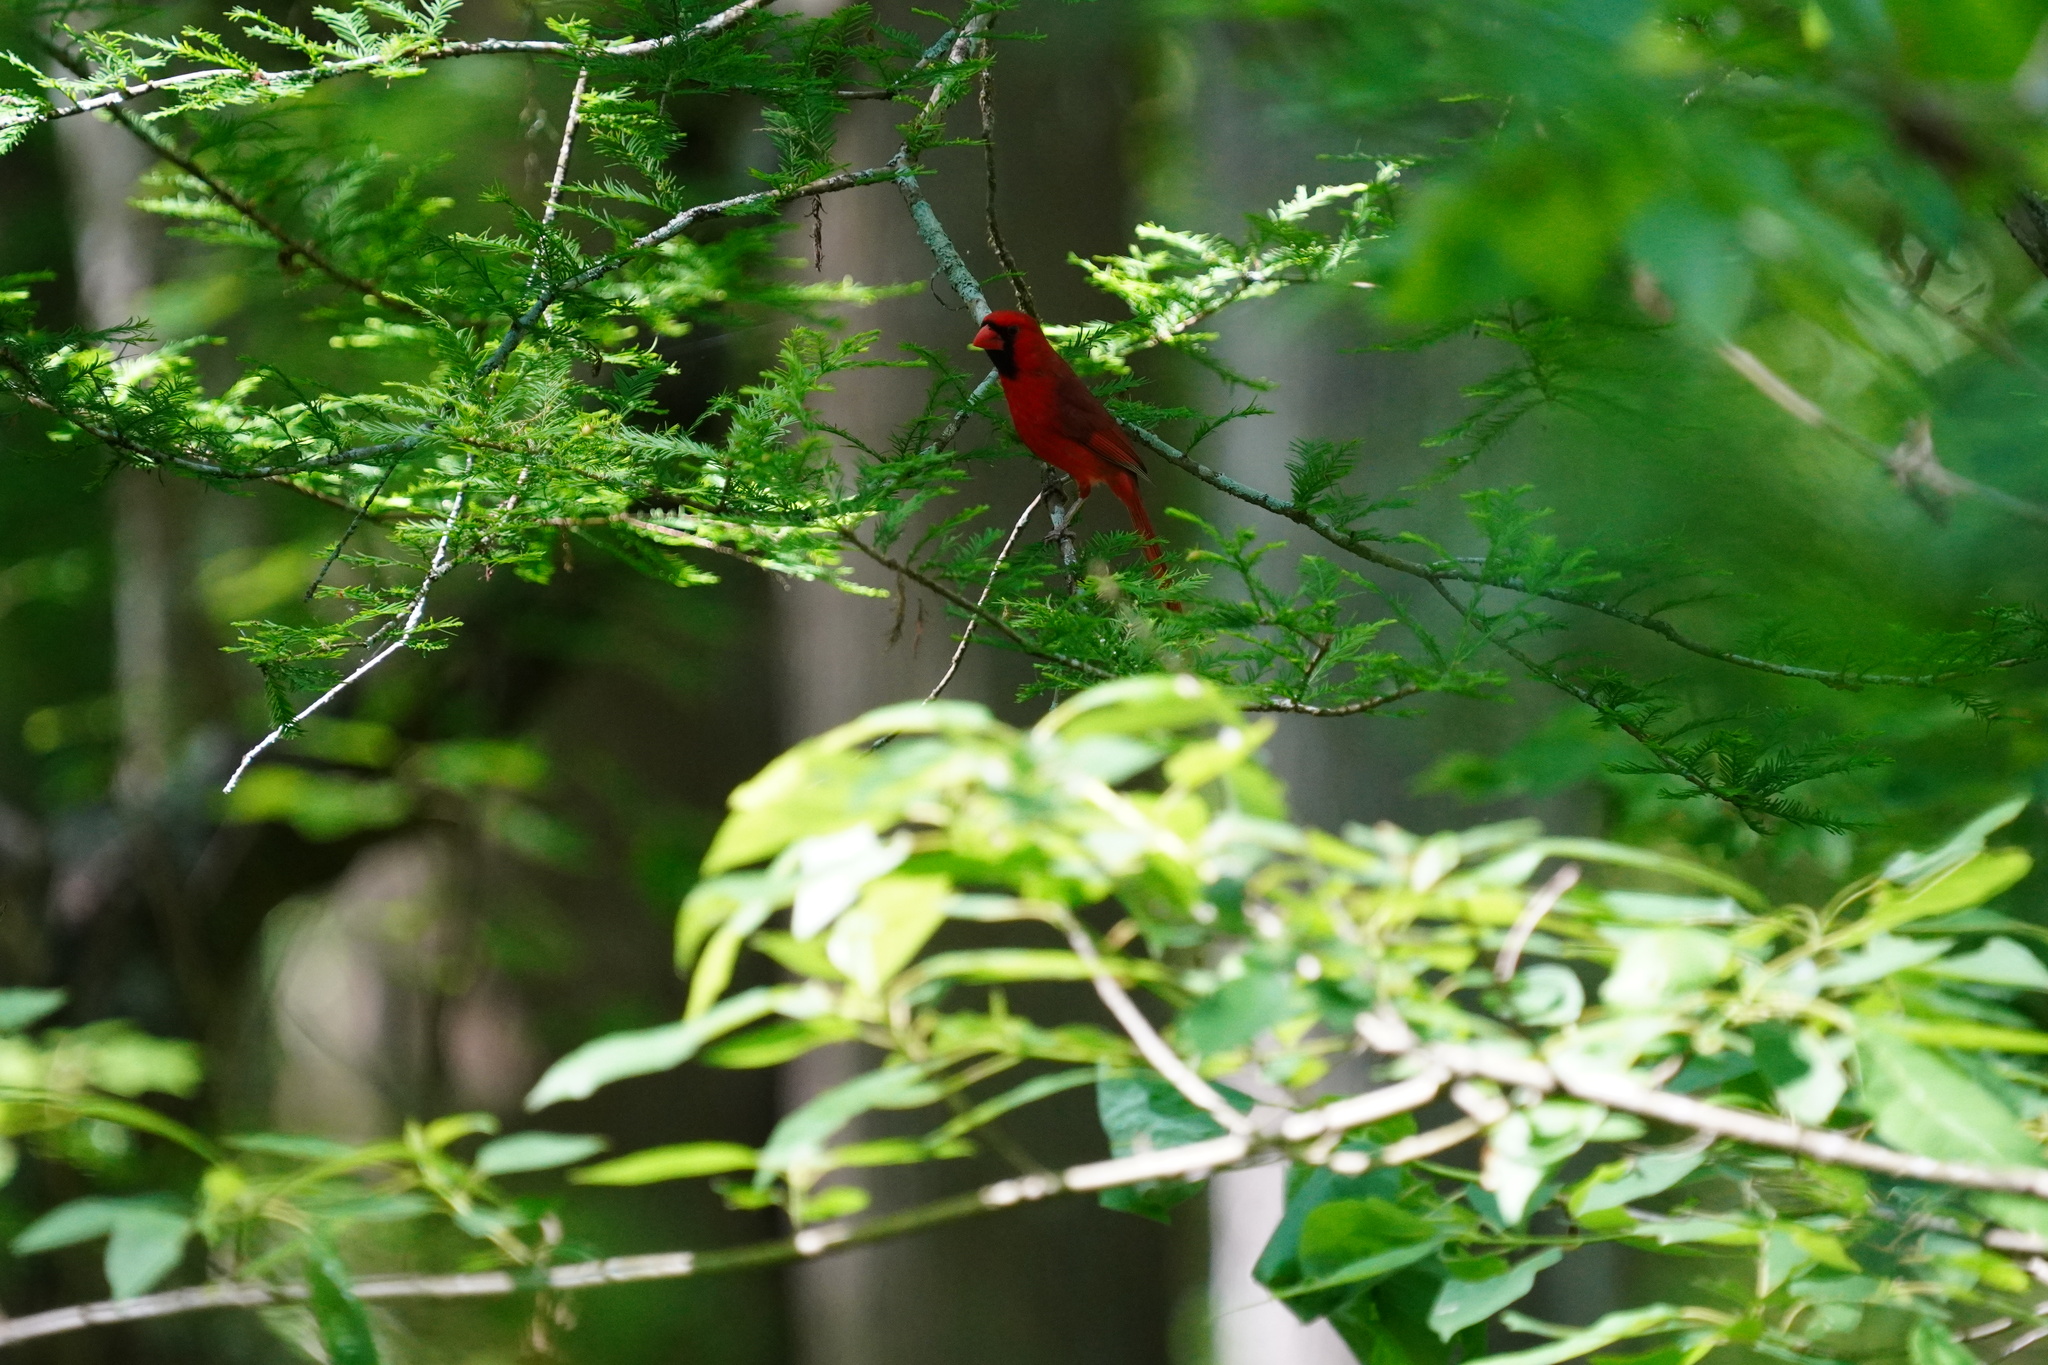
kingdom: Animalia
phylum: Chordata
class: Aves
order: Passeriformes
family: Cardinalidae
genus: Cardinalis
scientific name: Cardinalis cardinalis
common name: Northern cardinal
